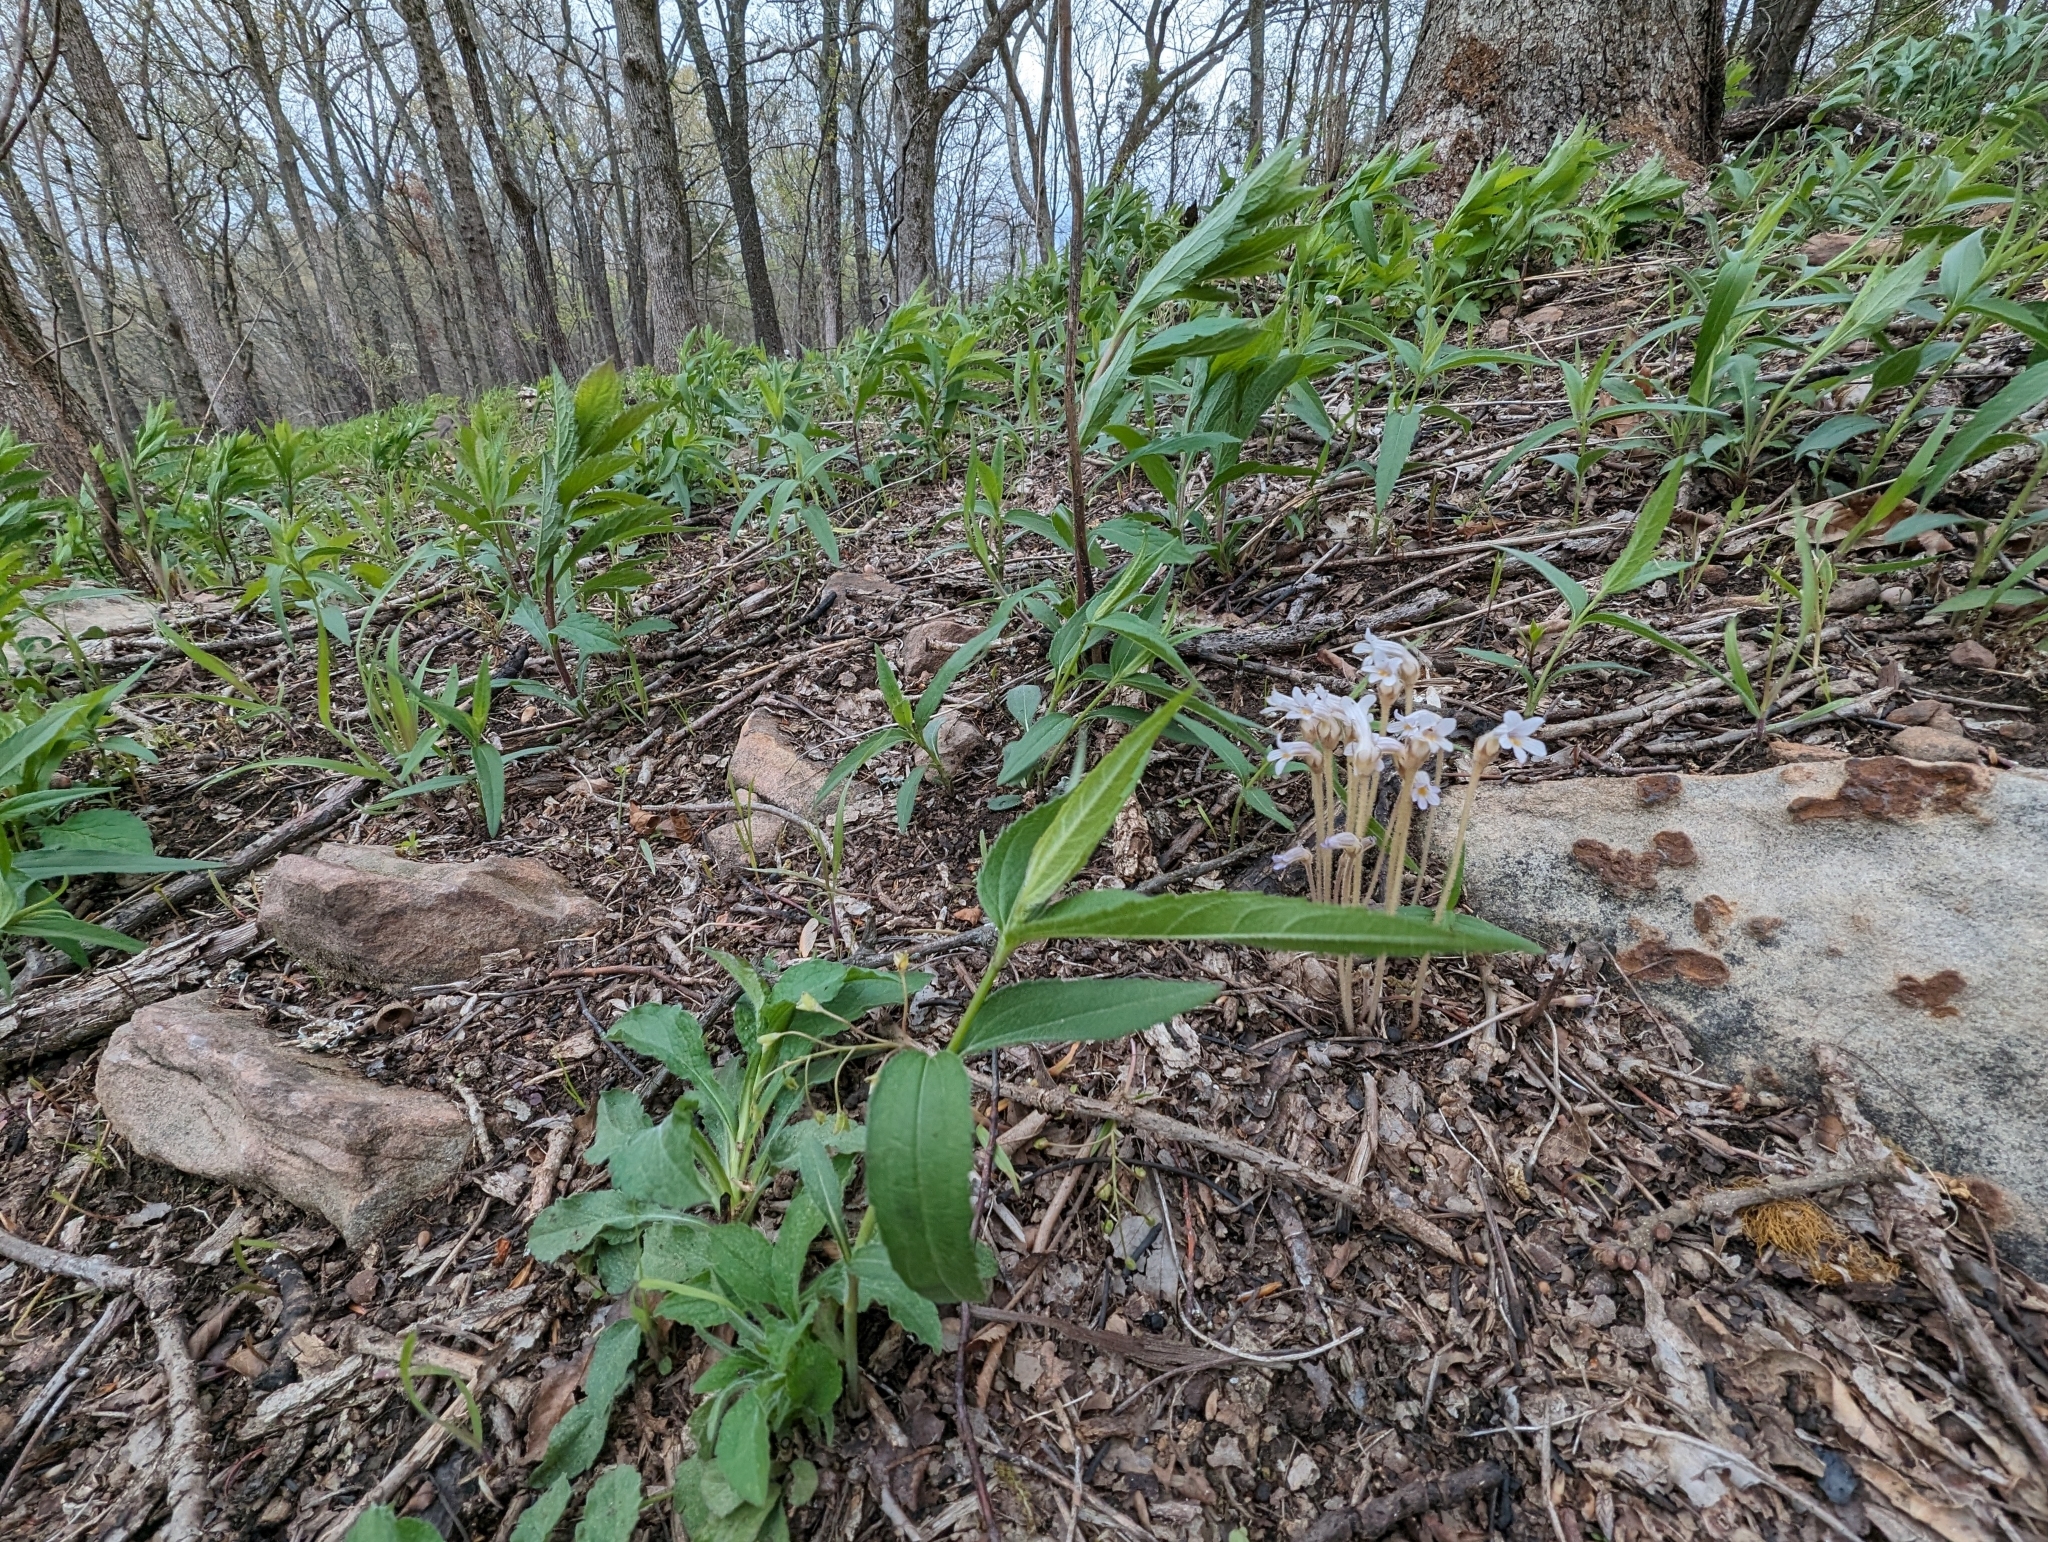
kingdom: Plantae
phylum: Tracheophyta
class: Magnoliopsida
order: Lamiales
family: Orobanchaceae
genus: Aphyllon
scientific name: Aphyllon uniflorum
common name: One-flowered broomrape
